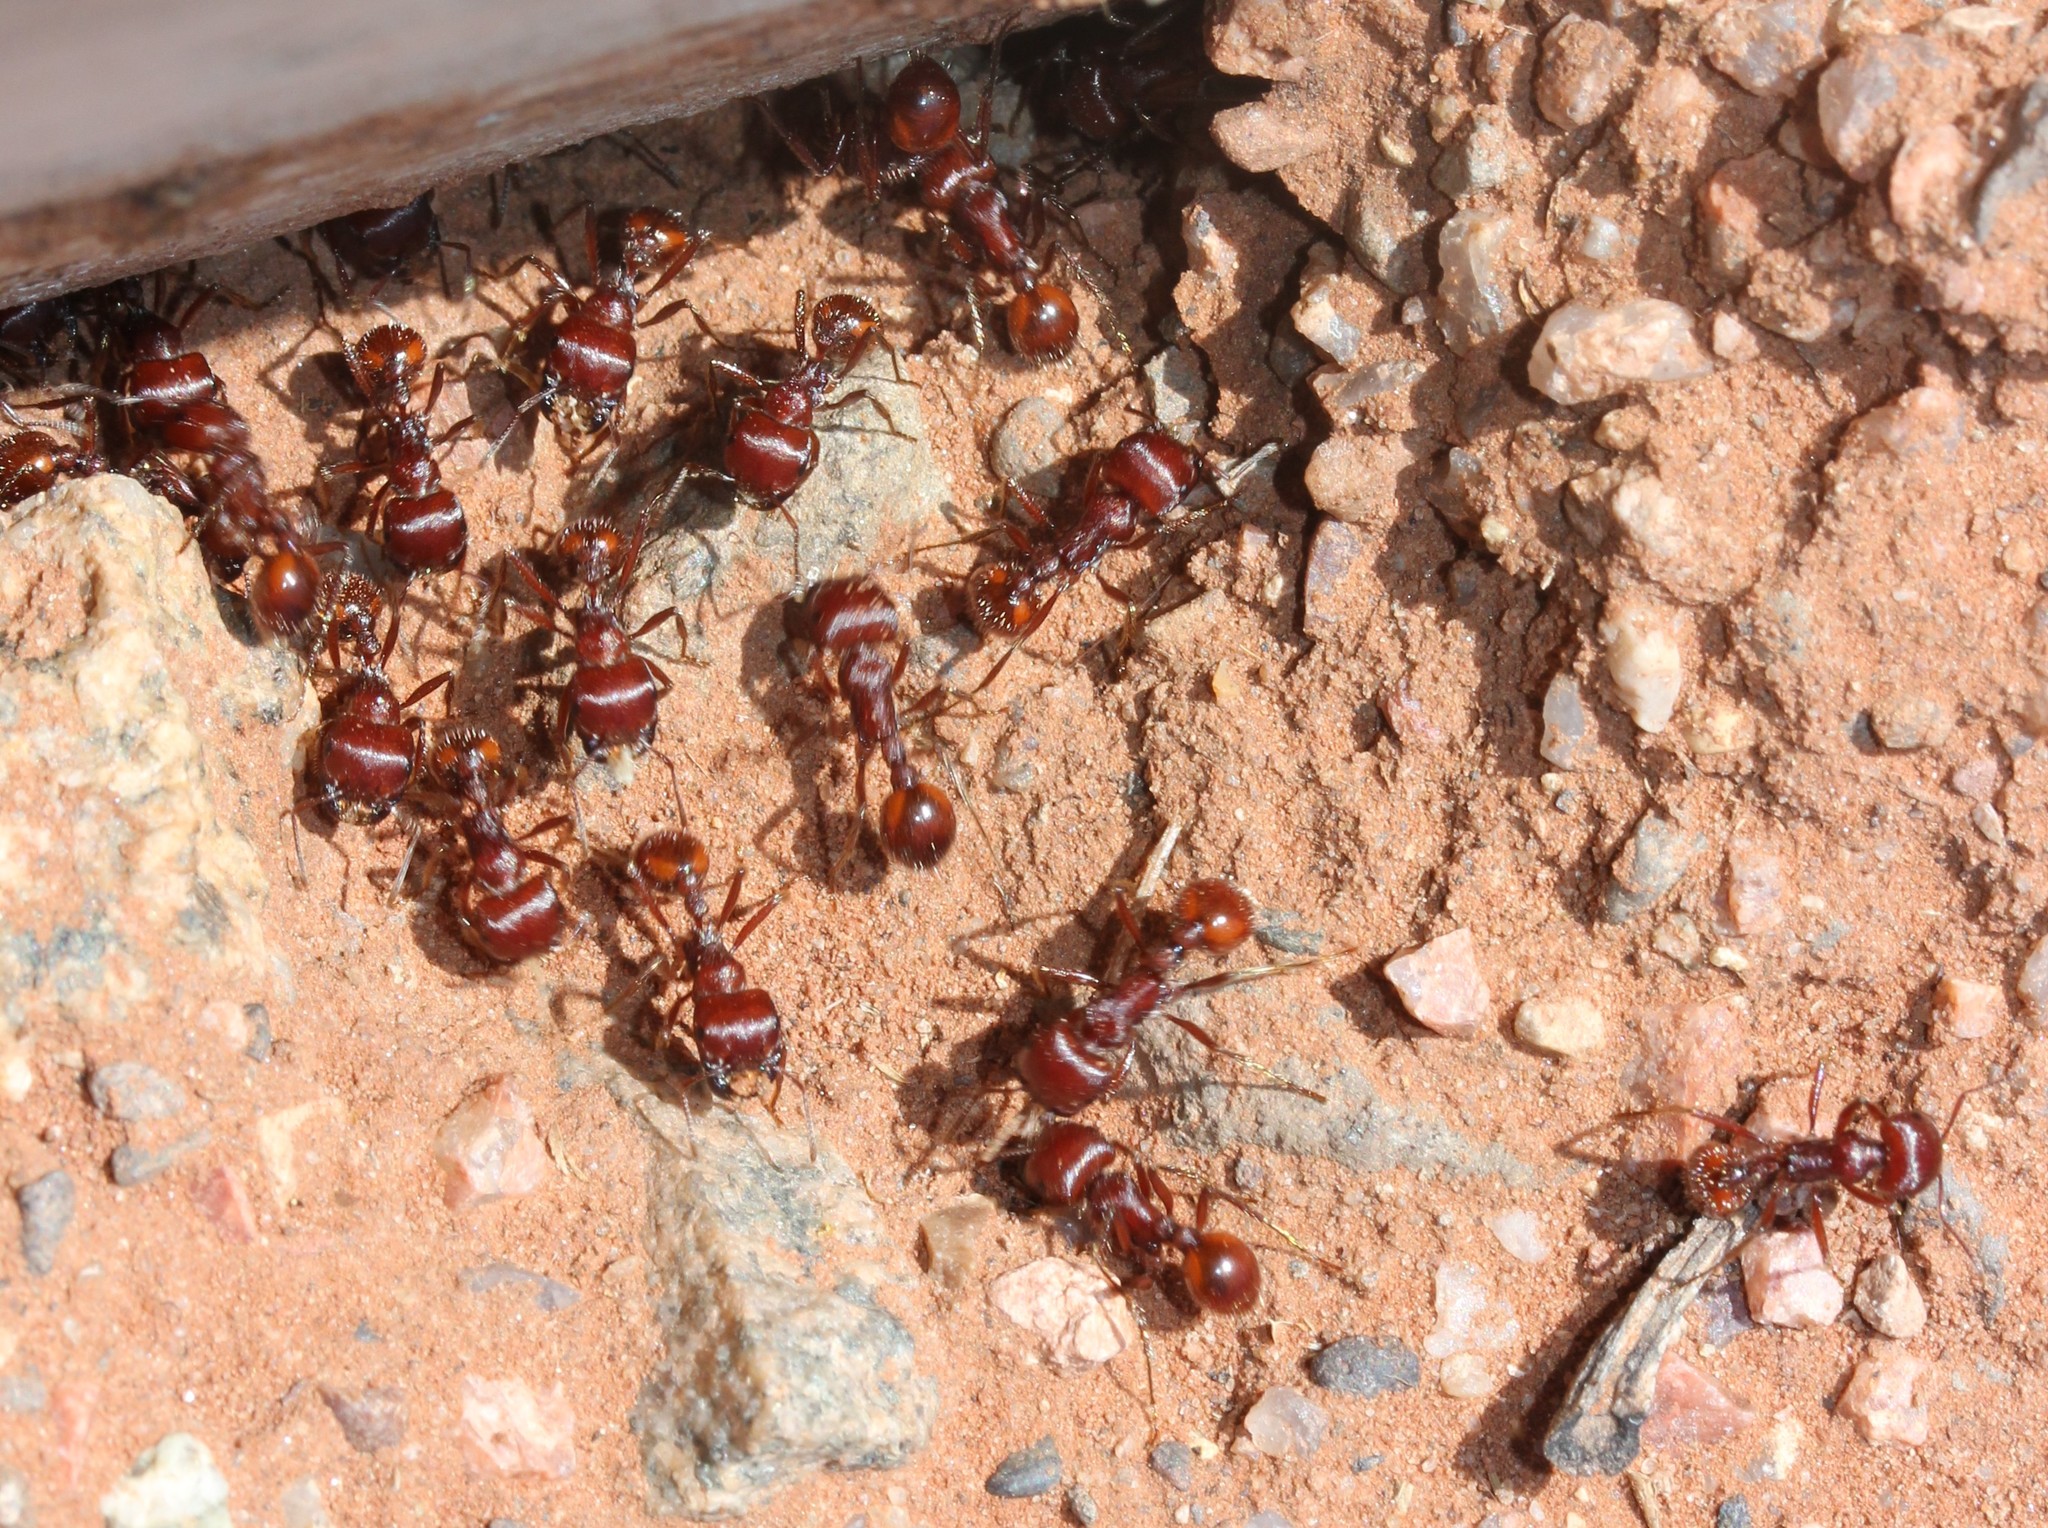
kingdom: Animalia
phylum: Arthropoda
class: Insecta
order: Hymenoptera
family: Formicidae
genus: Pogonomyrmex
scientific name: Pogonomyrmex barbatus
